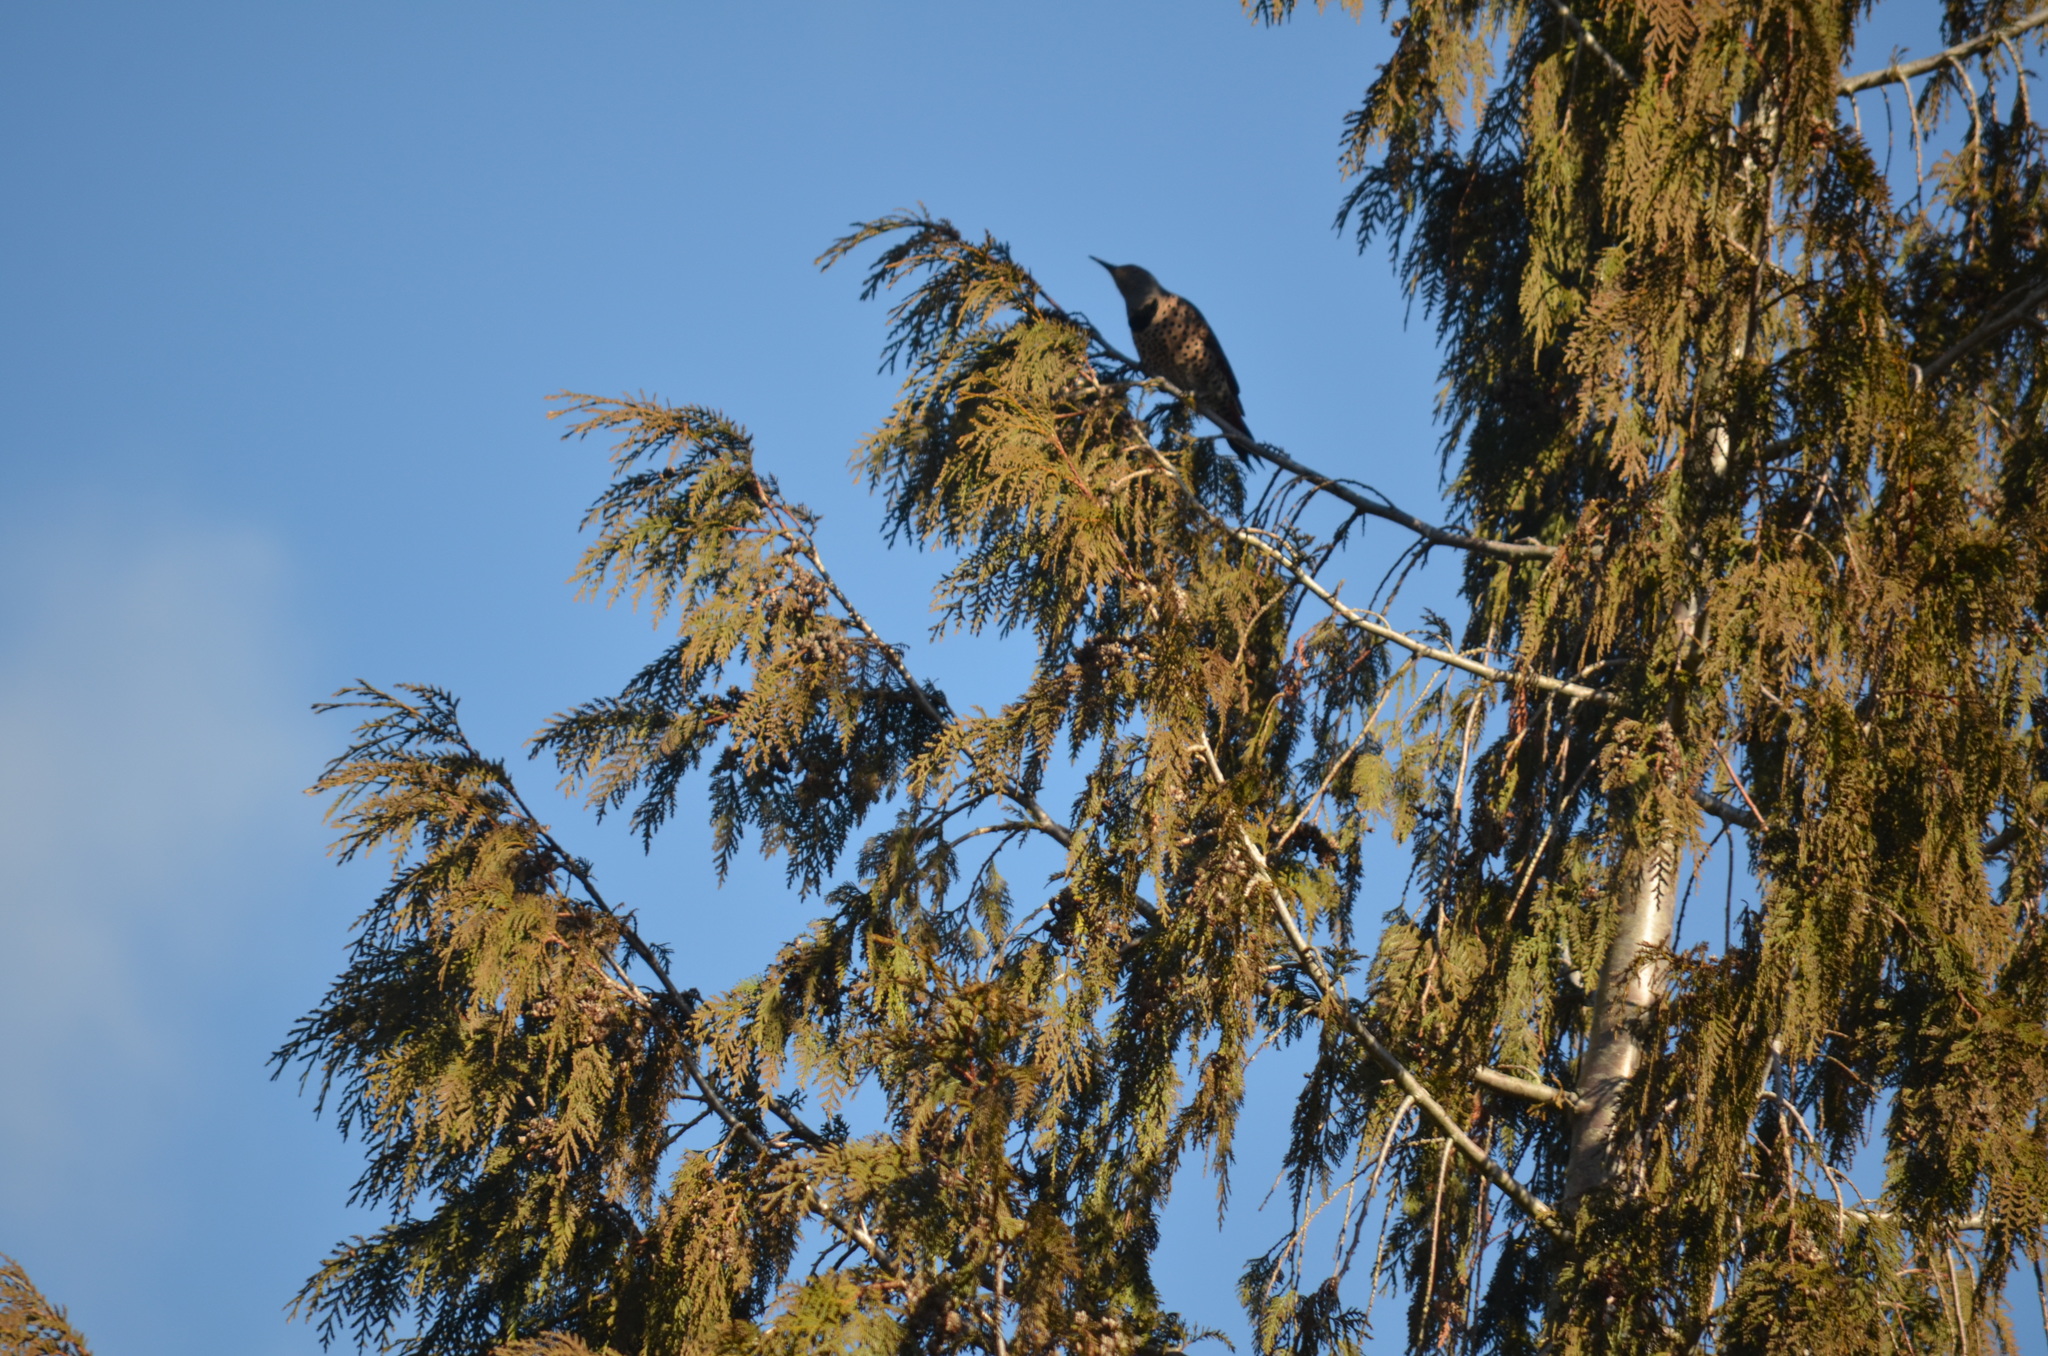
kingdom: Animalia
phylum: Chordata
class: Aves
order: Piciformes
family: Picidae
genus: Colaptes
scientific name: Colaptes auratus
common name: Northern flicker
